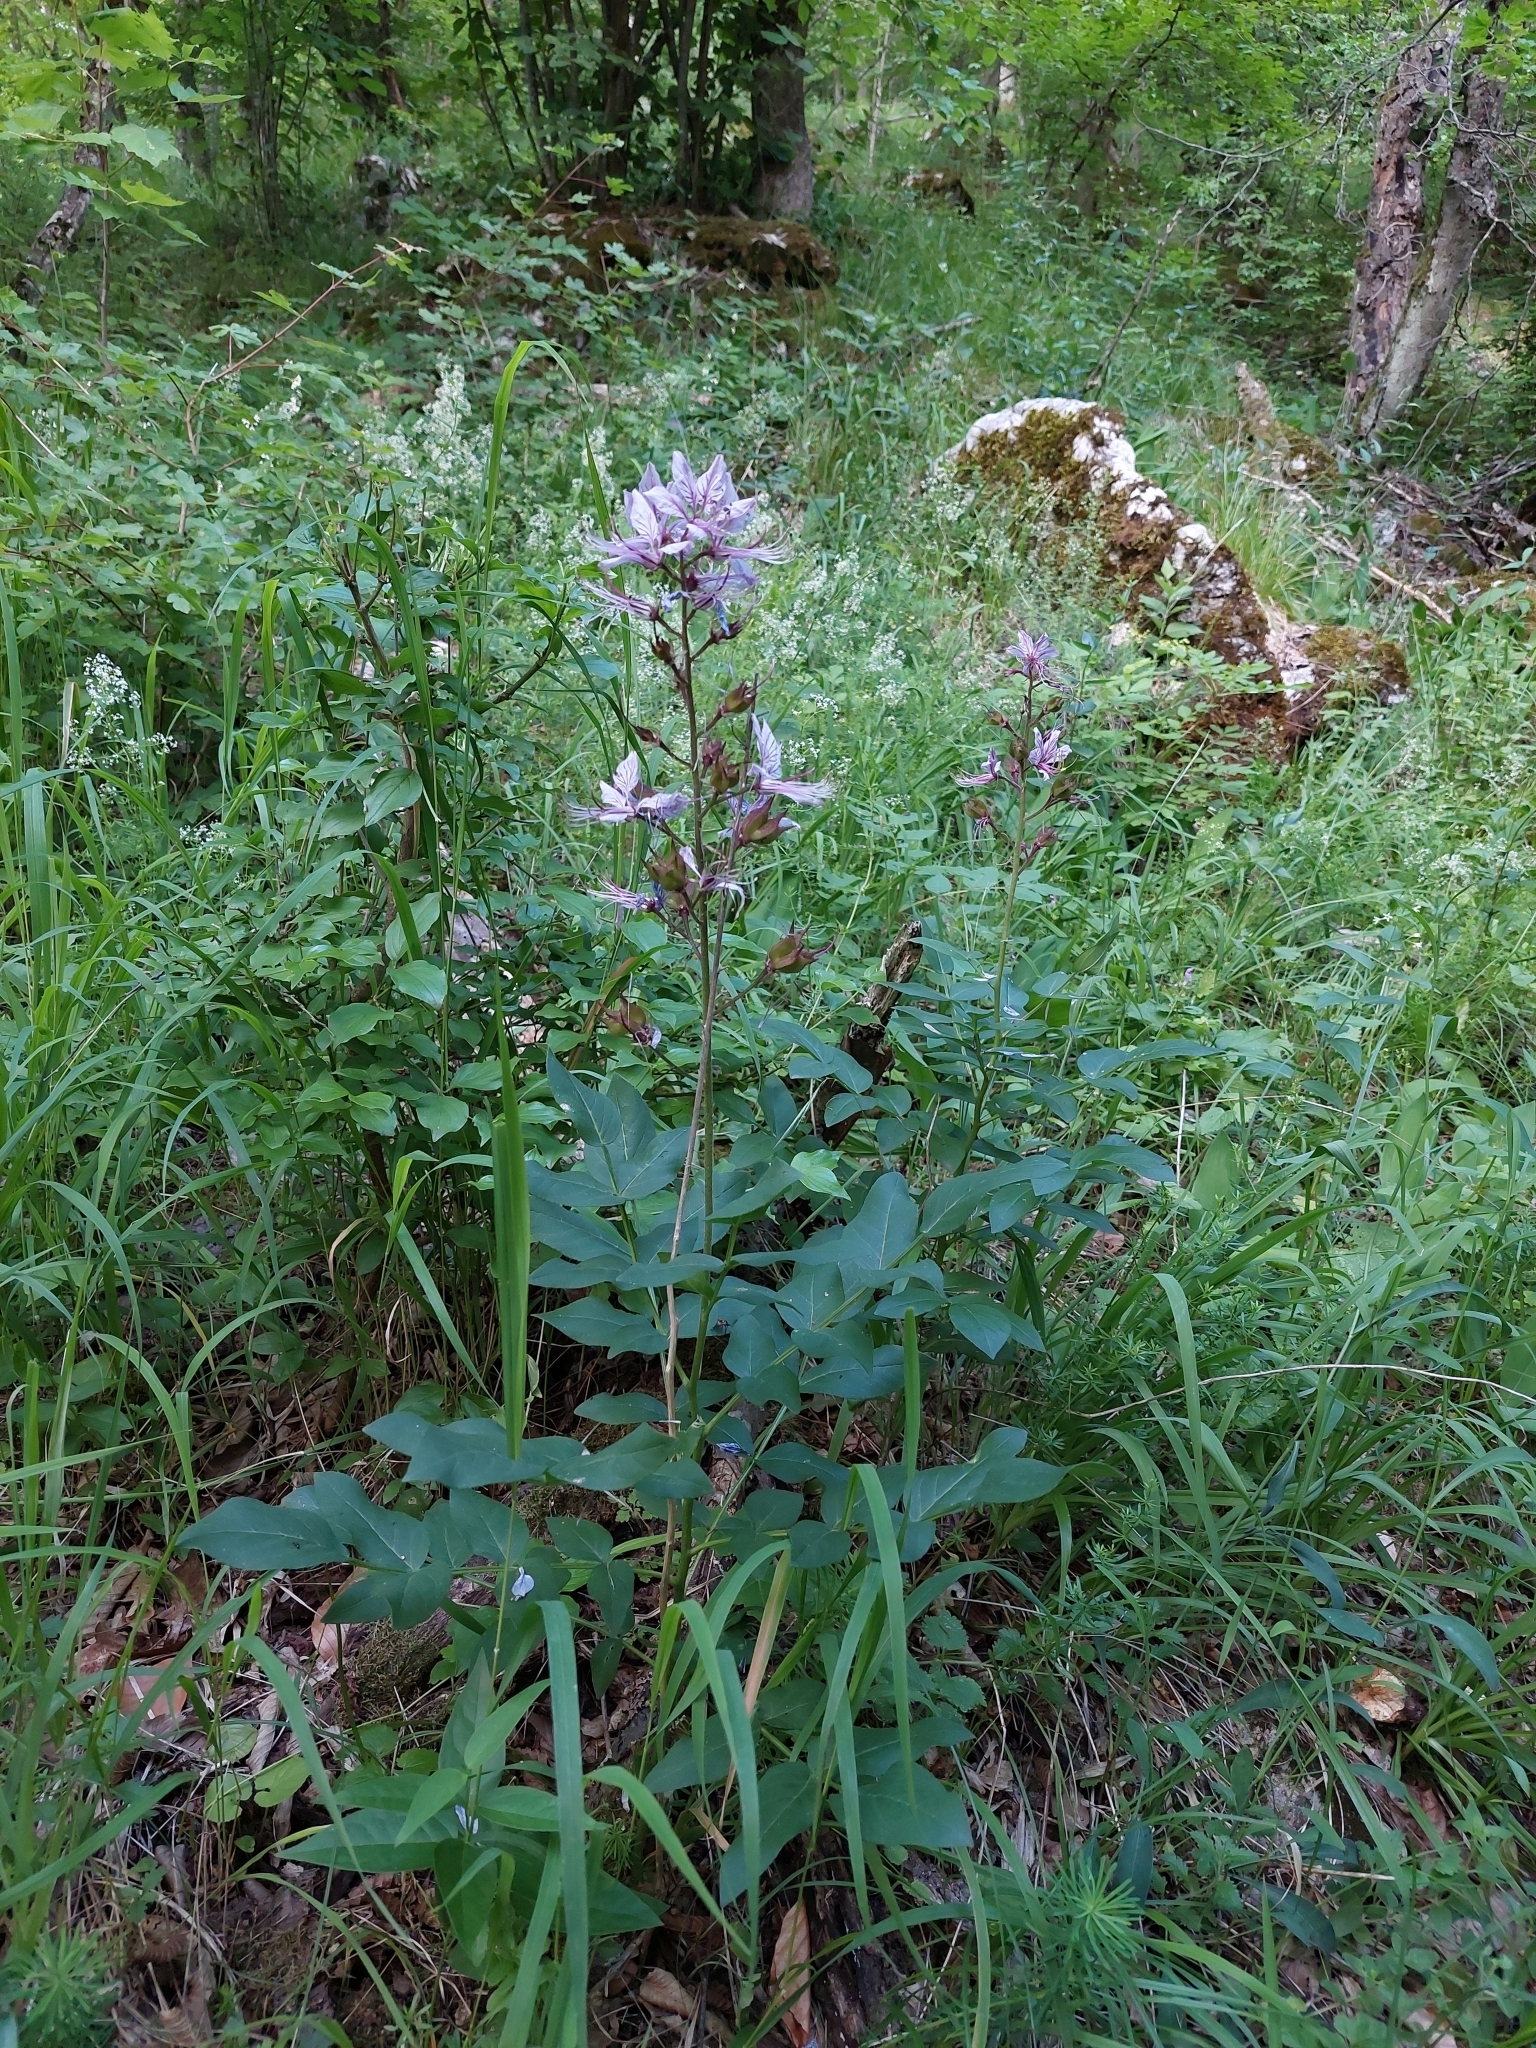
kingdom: Plantae
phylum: Tracheophyta
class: Magnoliopsida
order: Sapindales
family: Rutaceae
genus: Dictamnus
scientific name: Dictamnus albus
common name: Gasplant
